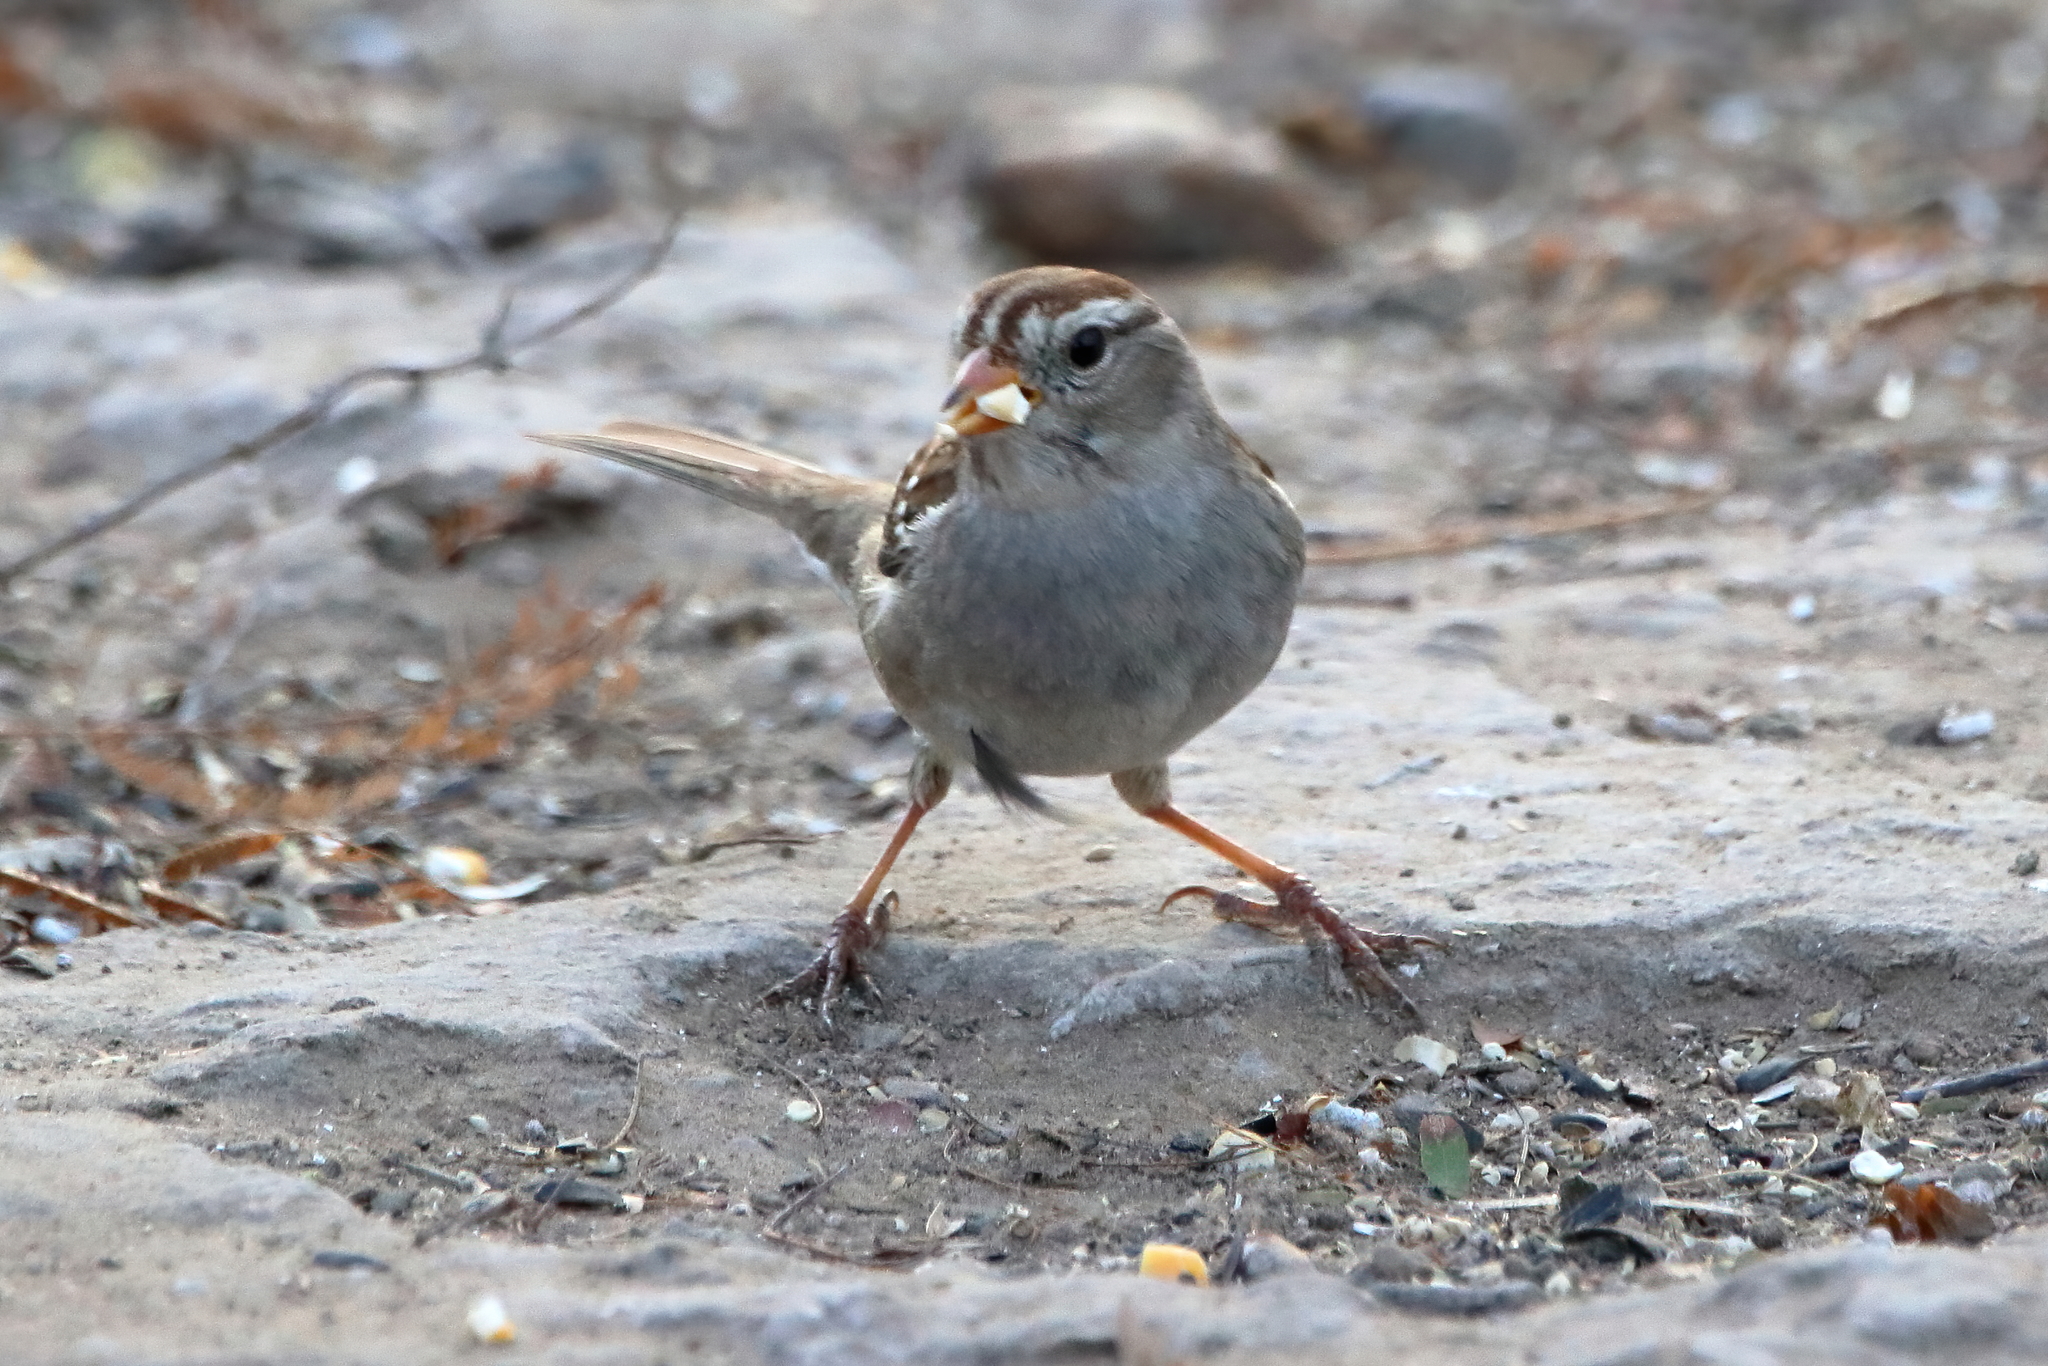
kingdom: Animalia
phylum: Chordata
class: Aves
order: Passeriformes
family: Passerellidae
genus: Zonotrichia
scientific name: Zonotrichia leucophrys
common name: White-crowned sparrow
